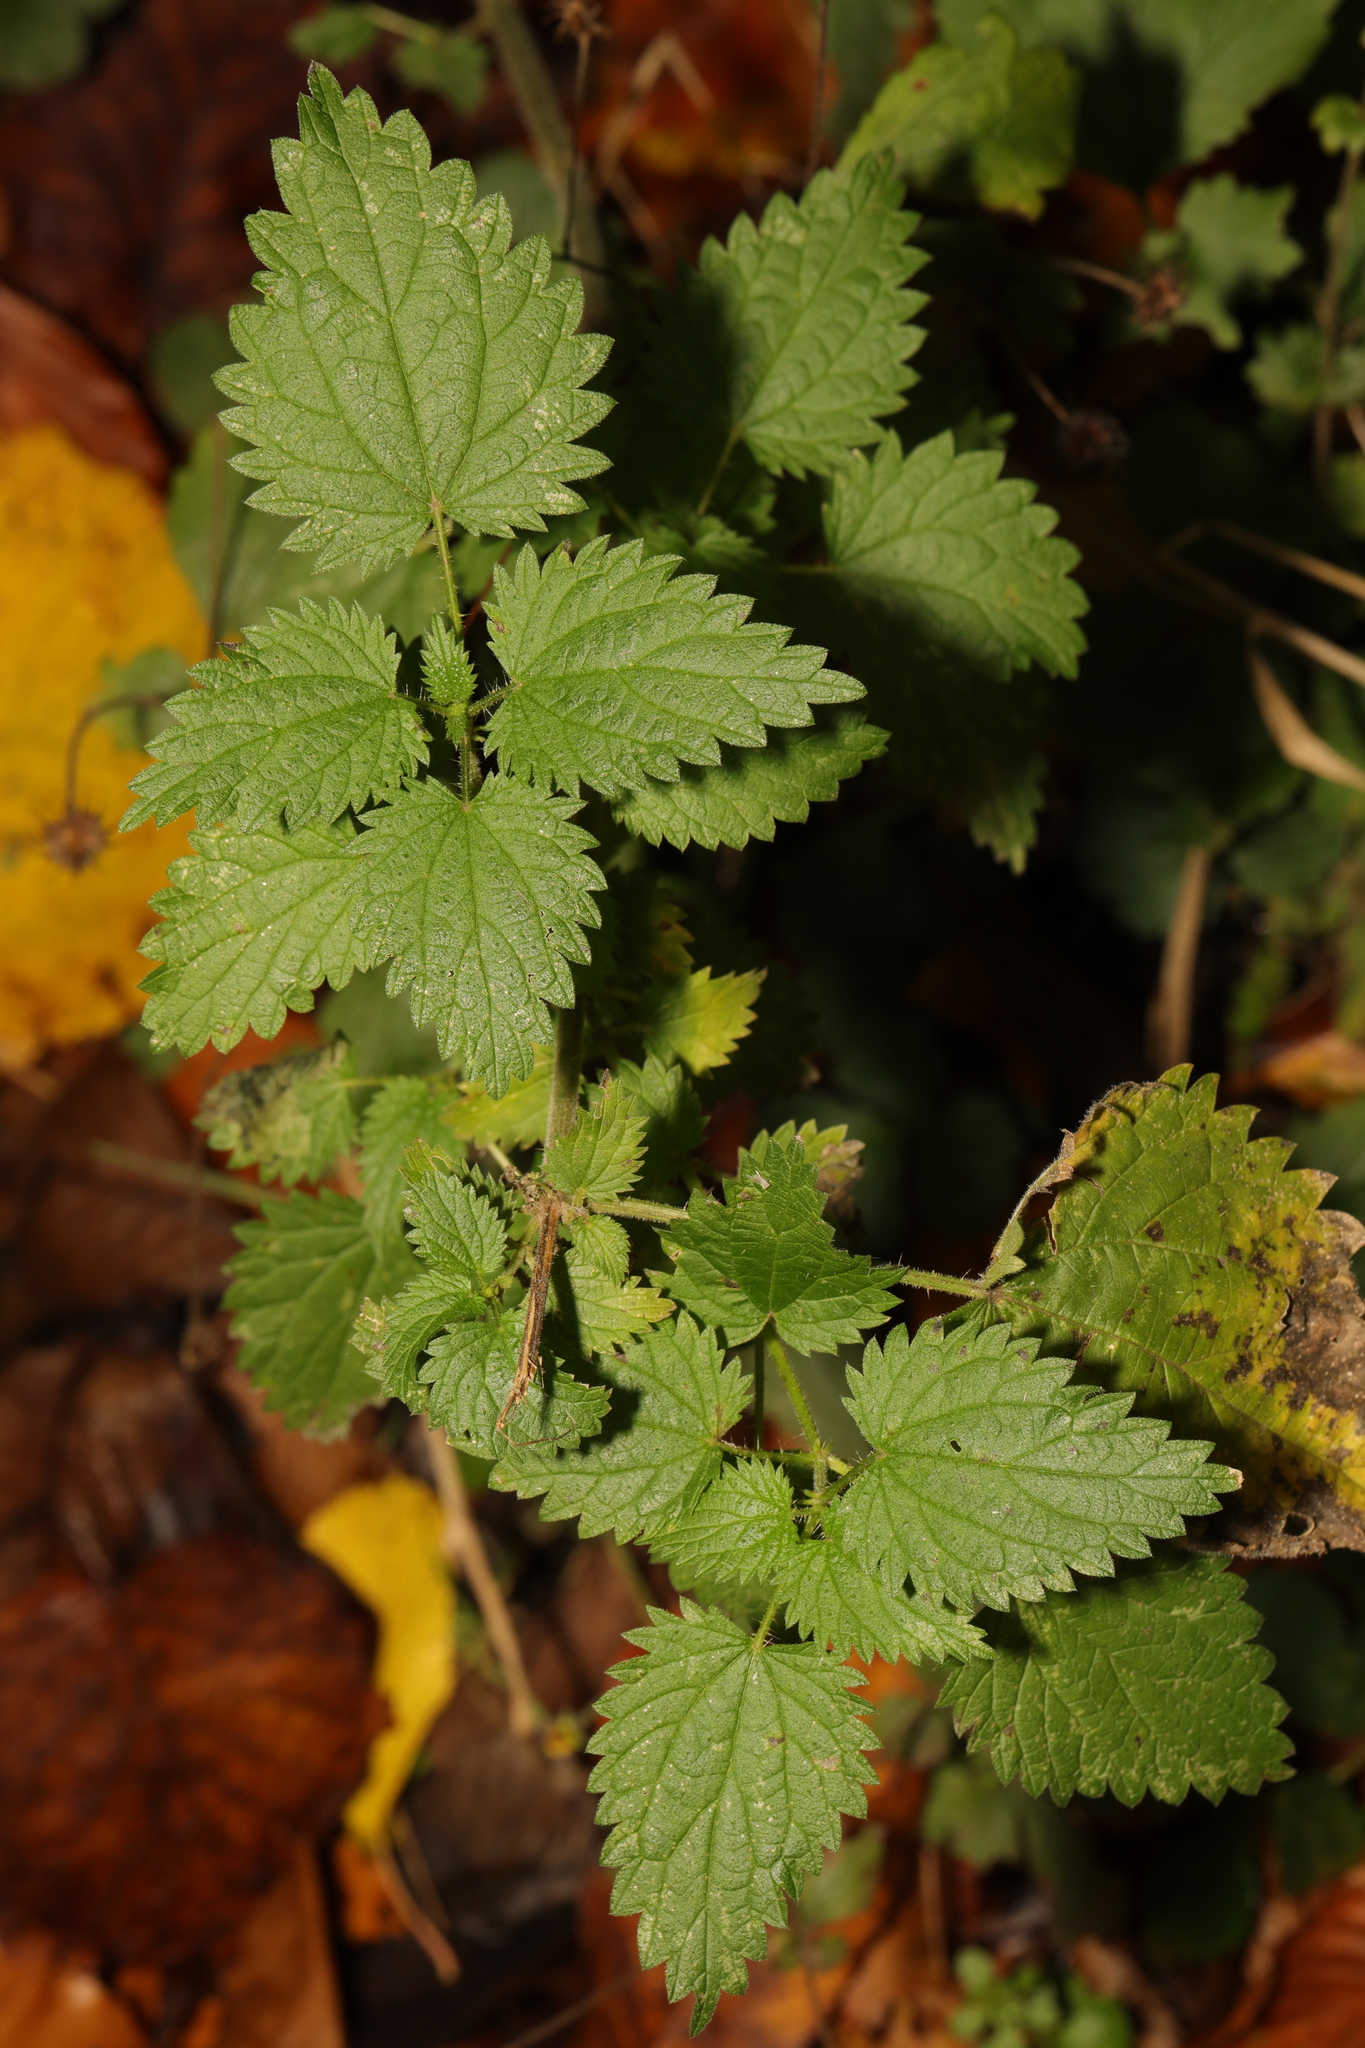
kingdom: Plantae
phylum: Tracheophyta
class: Magnoliopsida
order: Rosales
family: Urticaceae
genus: Urtica
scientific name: Urtica dioica
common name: Common nettle
